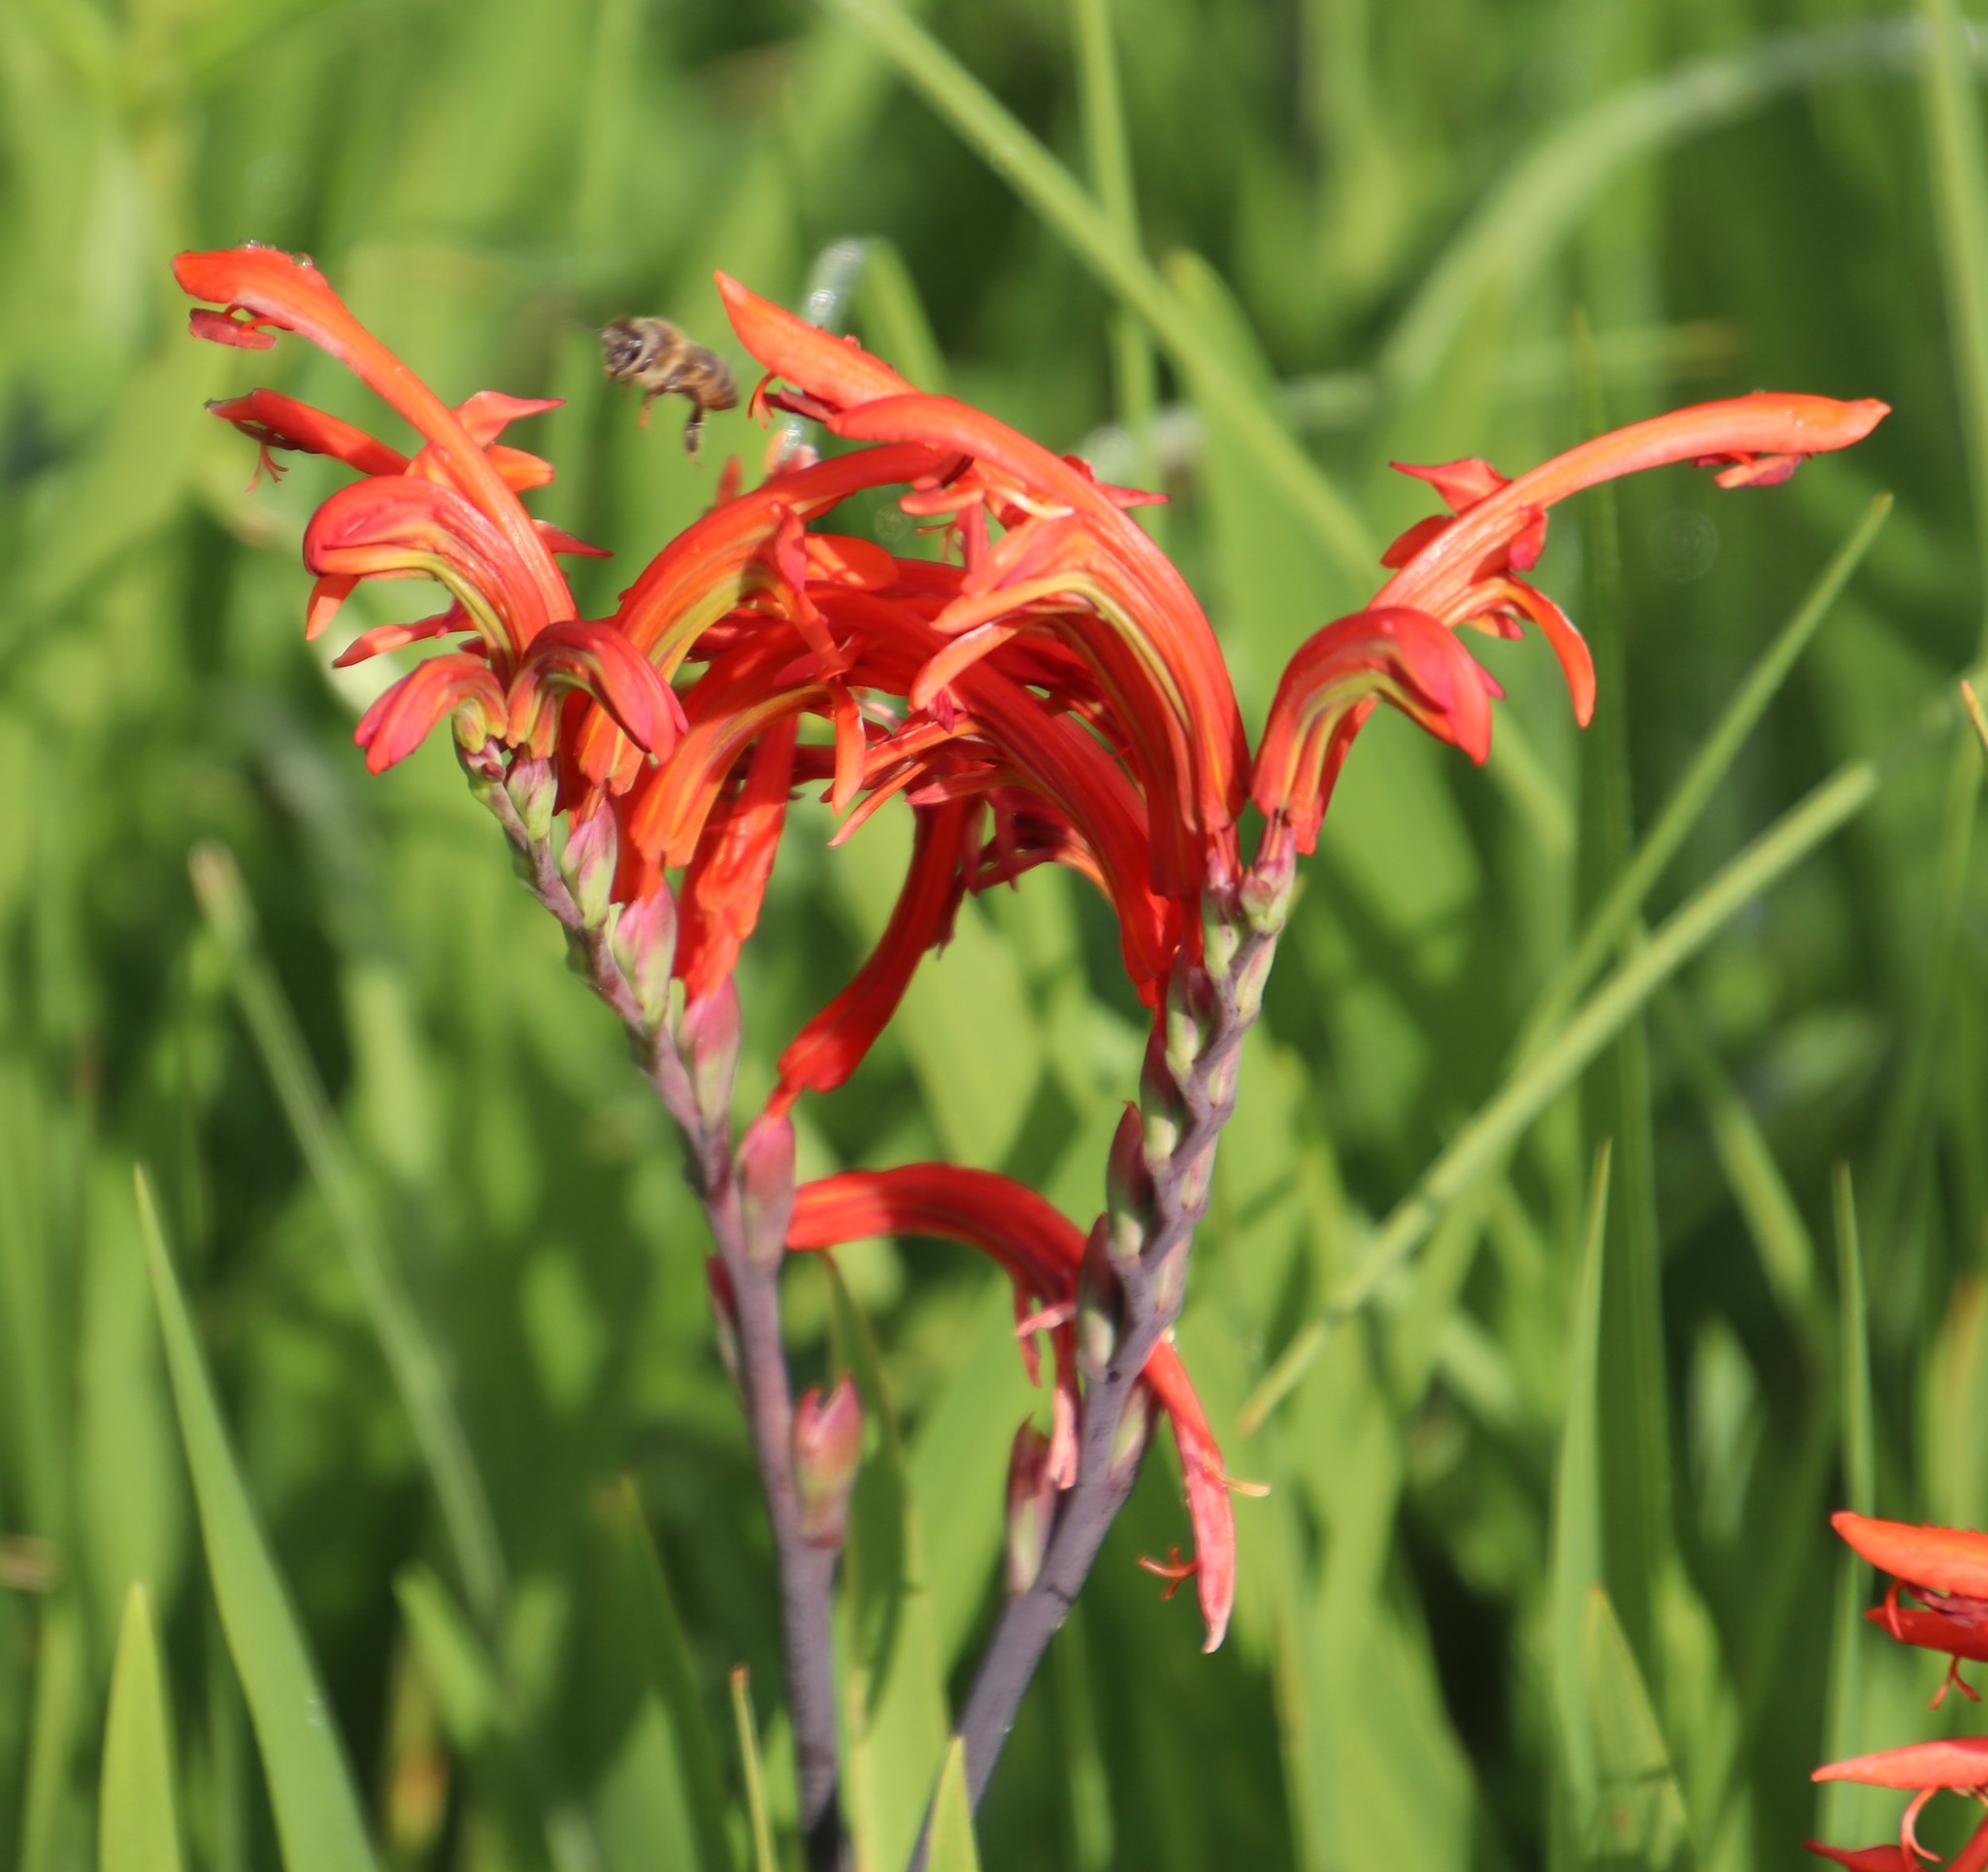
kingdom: Plantae
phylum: Tracheophyta
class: Liliopsida
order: Asparagales
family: Iridaceae
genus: Chasmanthe
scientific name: Chasmanthe floribunda
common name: African cornflag
